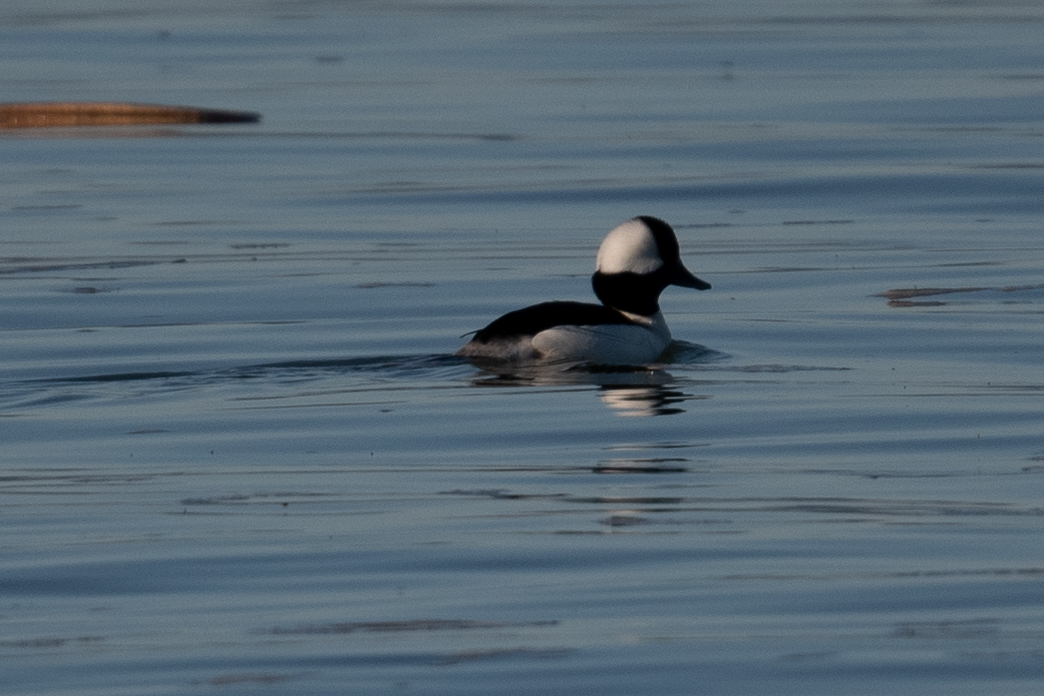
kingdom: Animalia
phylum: Chordata
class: Aves
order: Anseriformes
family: Anatidae
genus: Bucephala
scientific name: Bucephala albeola
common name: Bufflehead
